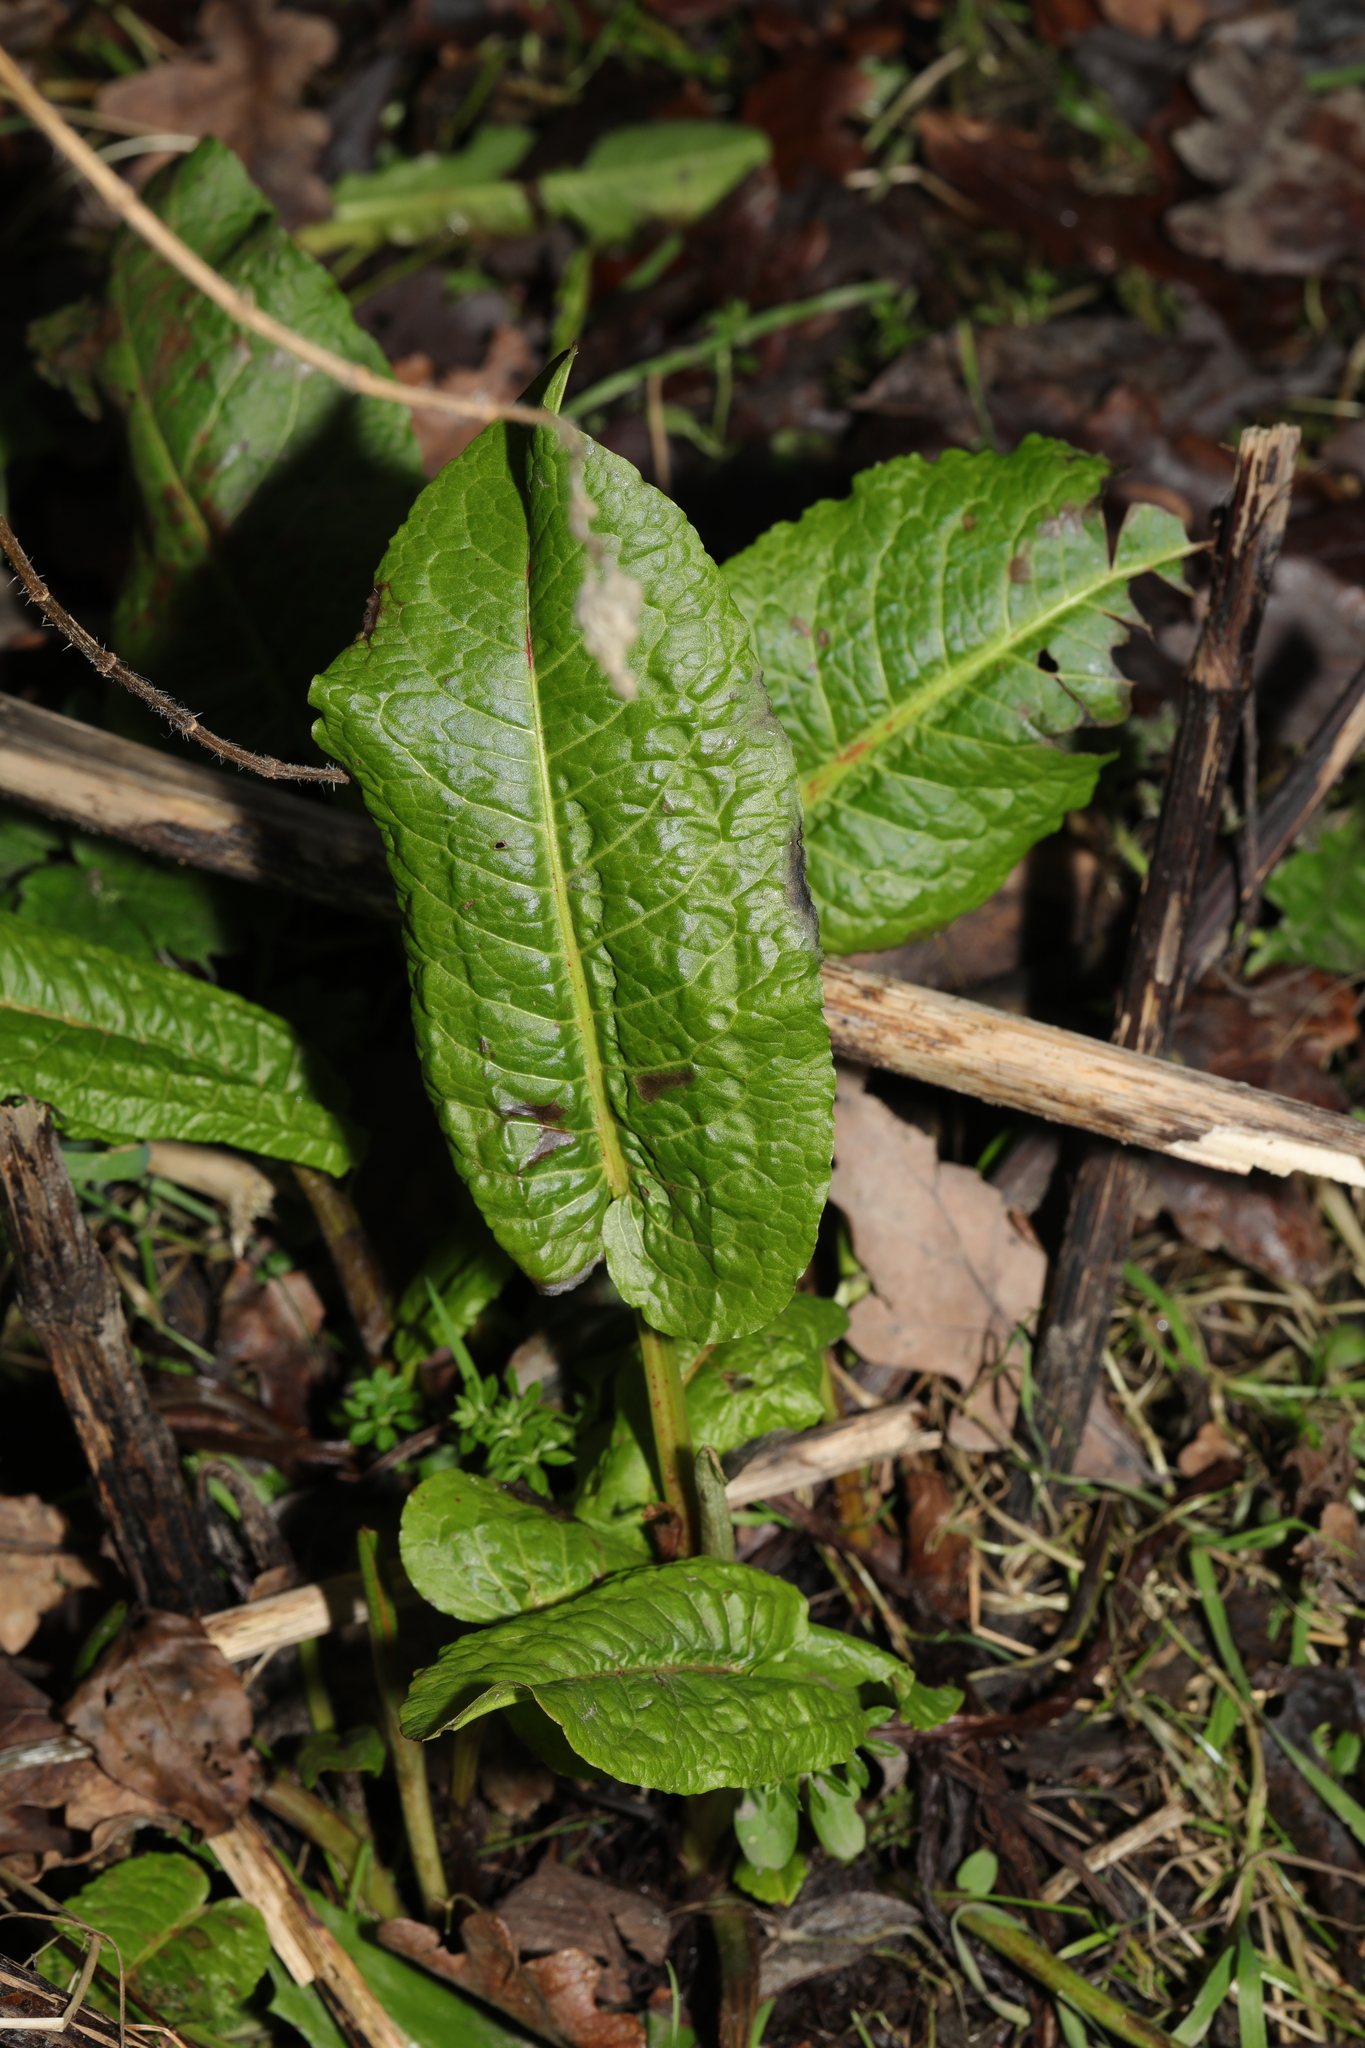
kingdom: Plantae
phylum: Tracheophyta
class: Magnoliopsida
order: Caryophyllales
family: Polygonaceae
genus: Rumex
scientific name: Rumex obtusifolius
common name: Bitter dock
